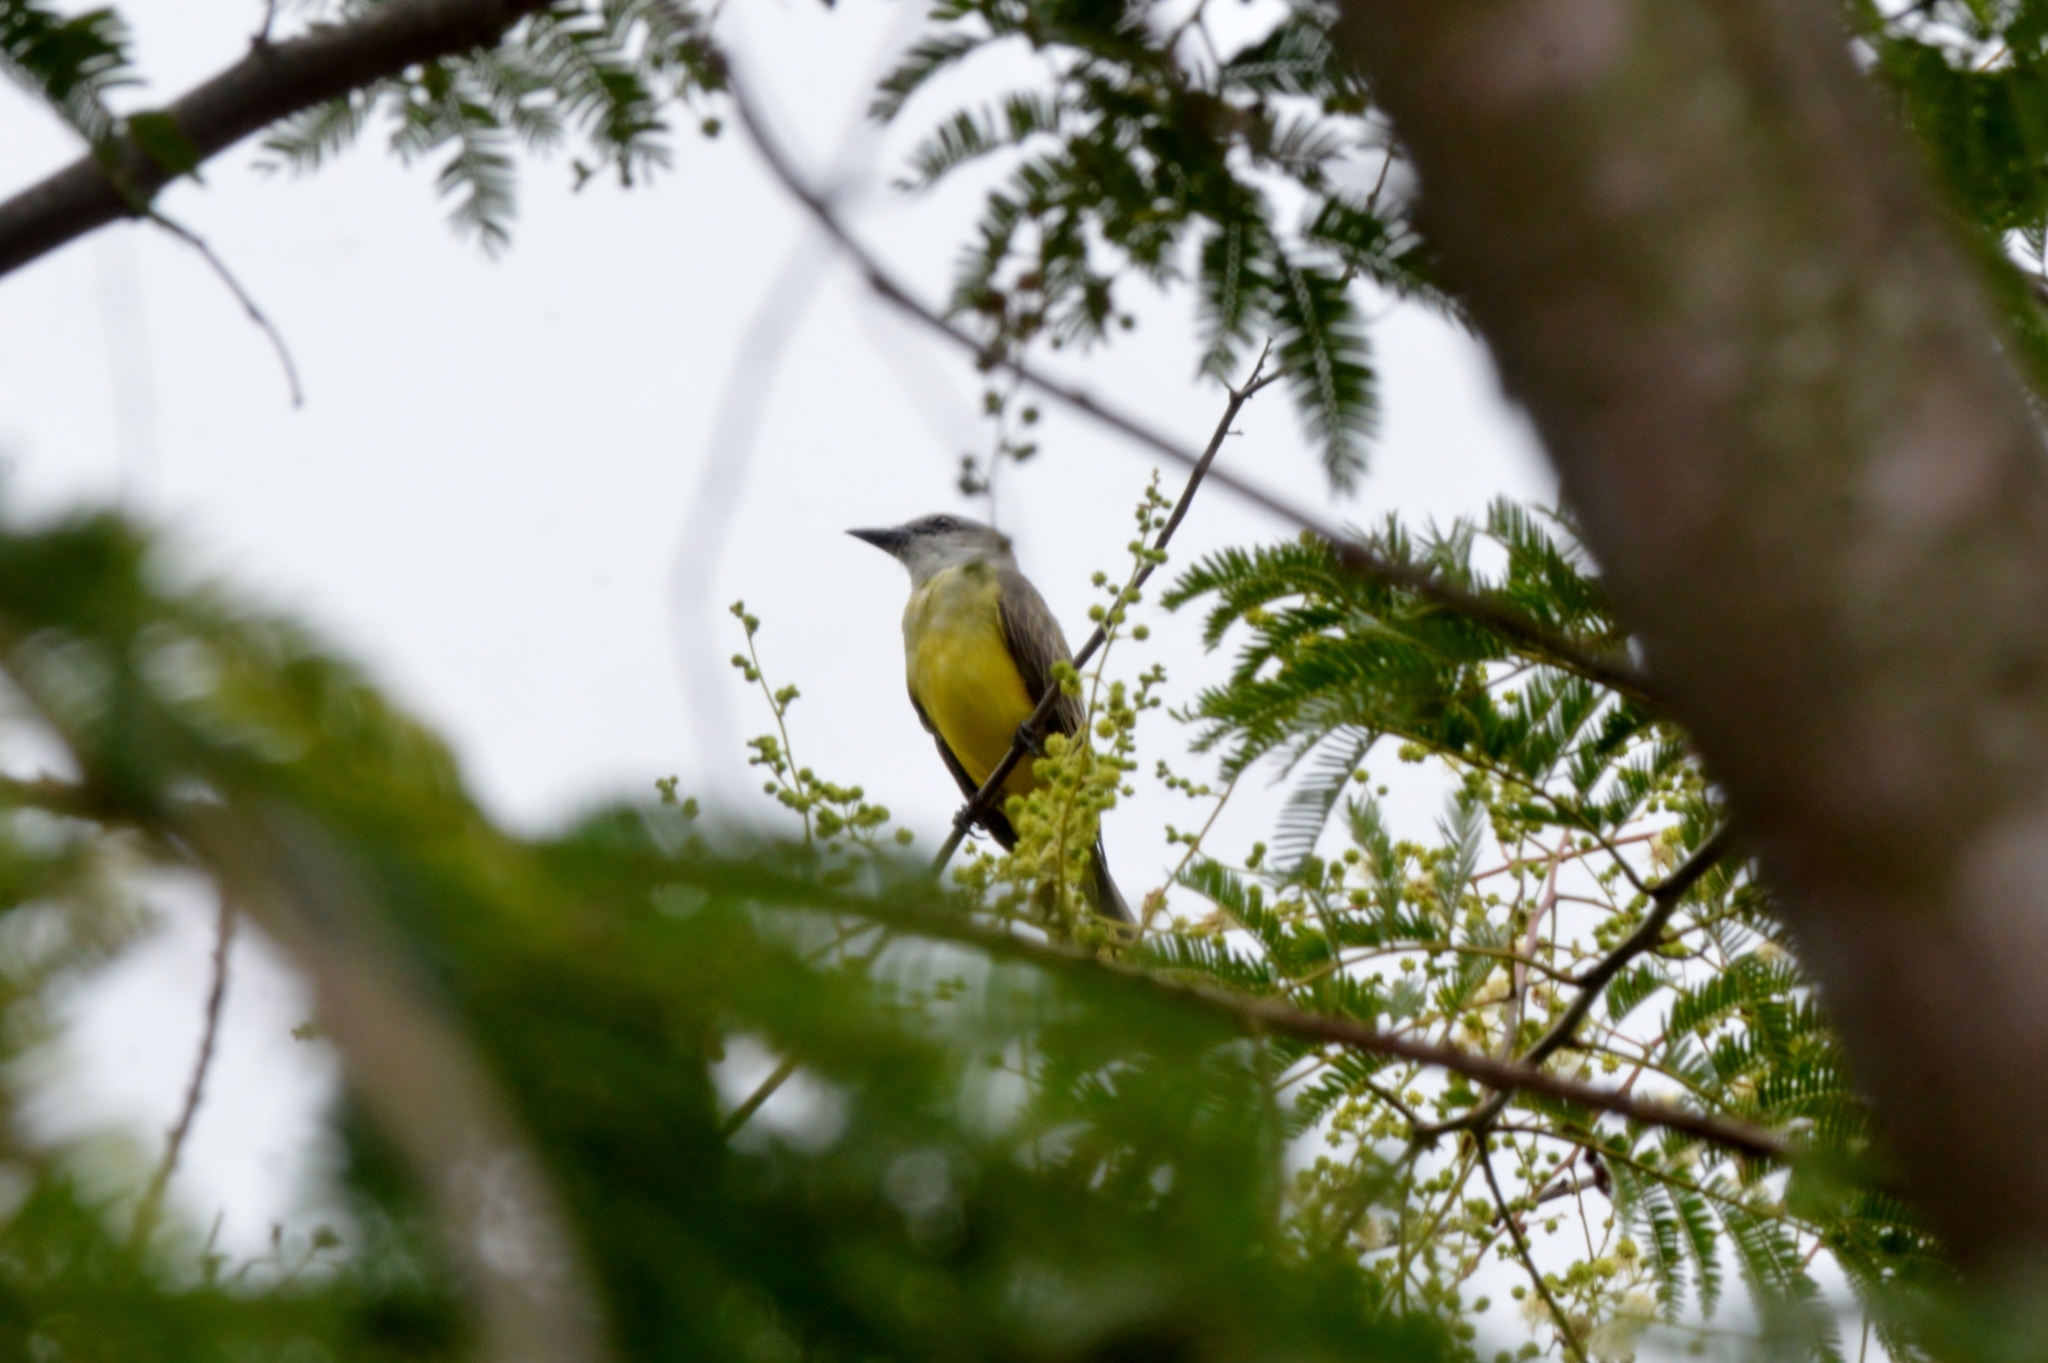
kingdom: Animalia
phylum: Chordata
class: Aves
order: Passeriformes
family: Tyrannidae
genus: Tyrannus
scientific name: Tyrannus melancholicus
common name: Tropical kingbird
